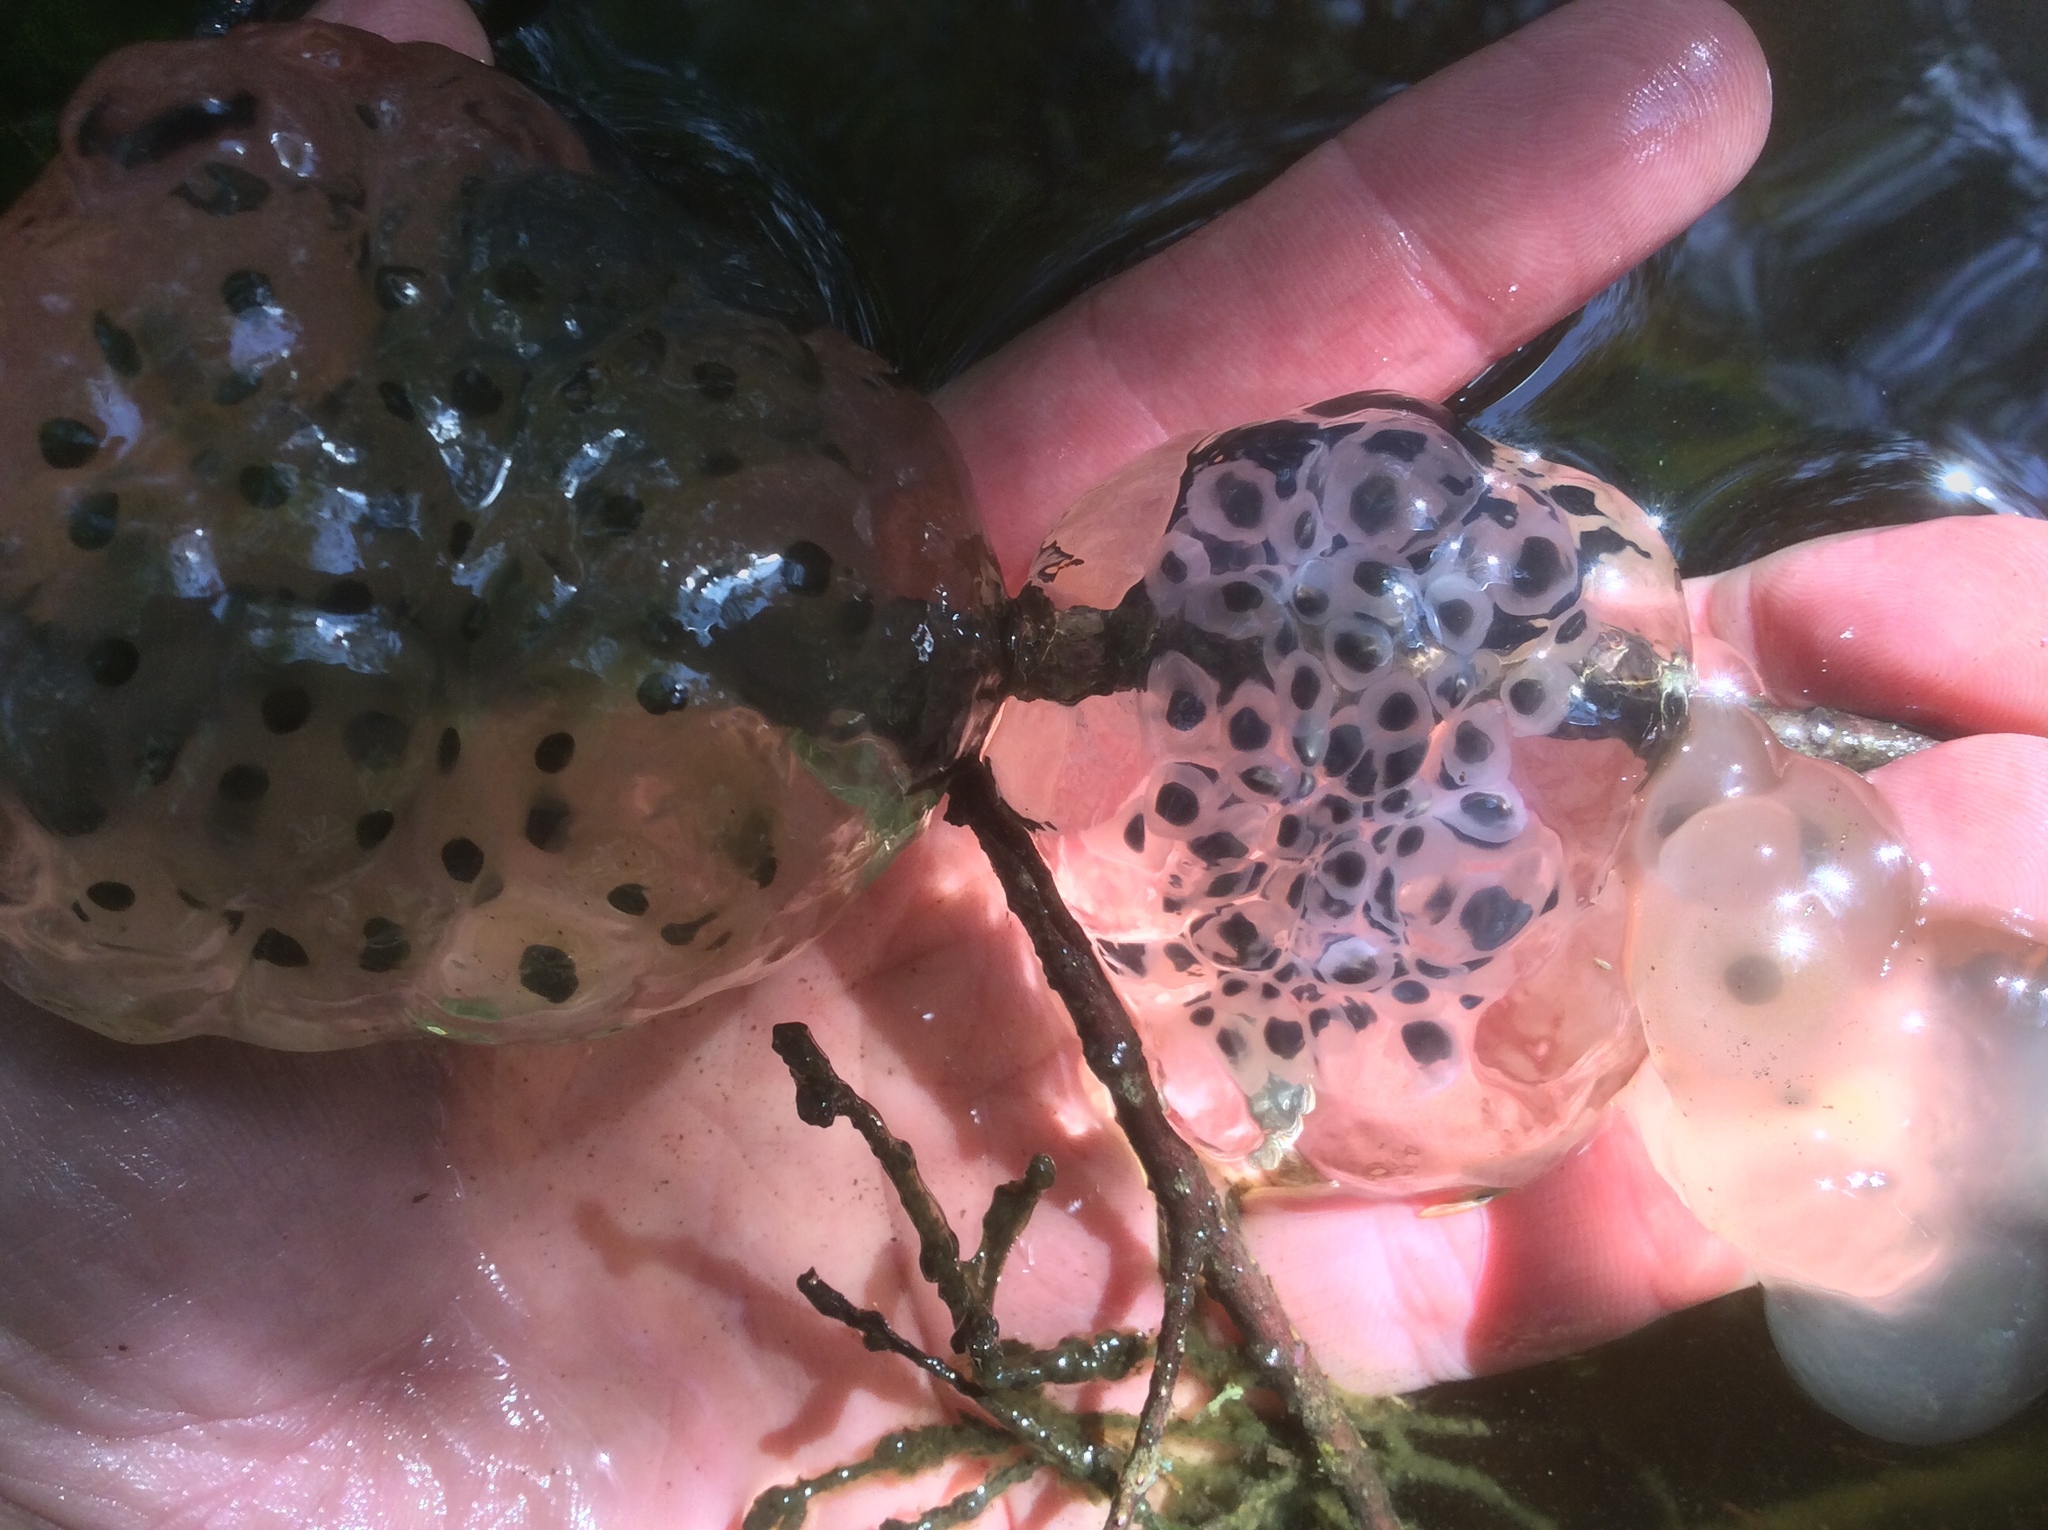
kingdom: Animalia
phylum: Chordata
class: Amphibia
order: Caudata
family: Ambystomatidae
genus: Ambystoma
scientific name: Ambystoma maculatum
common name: Spotted salamander
